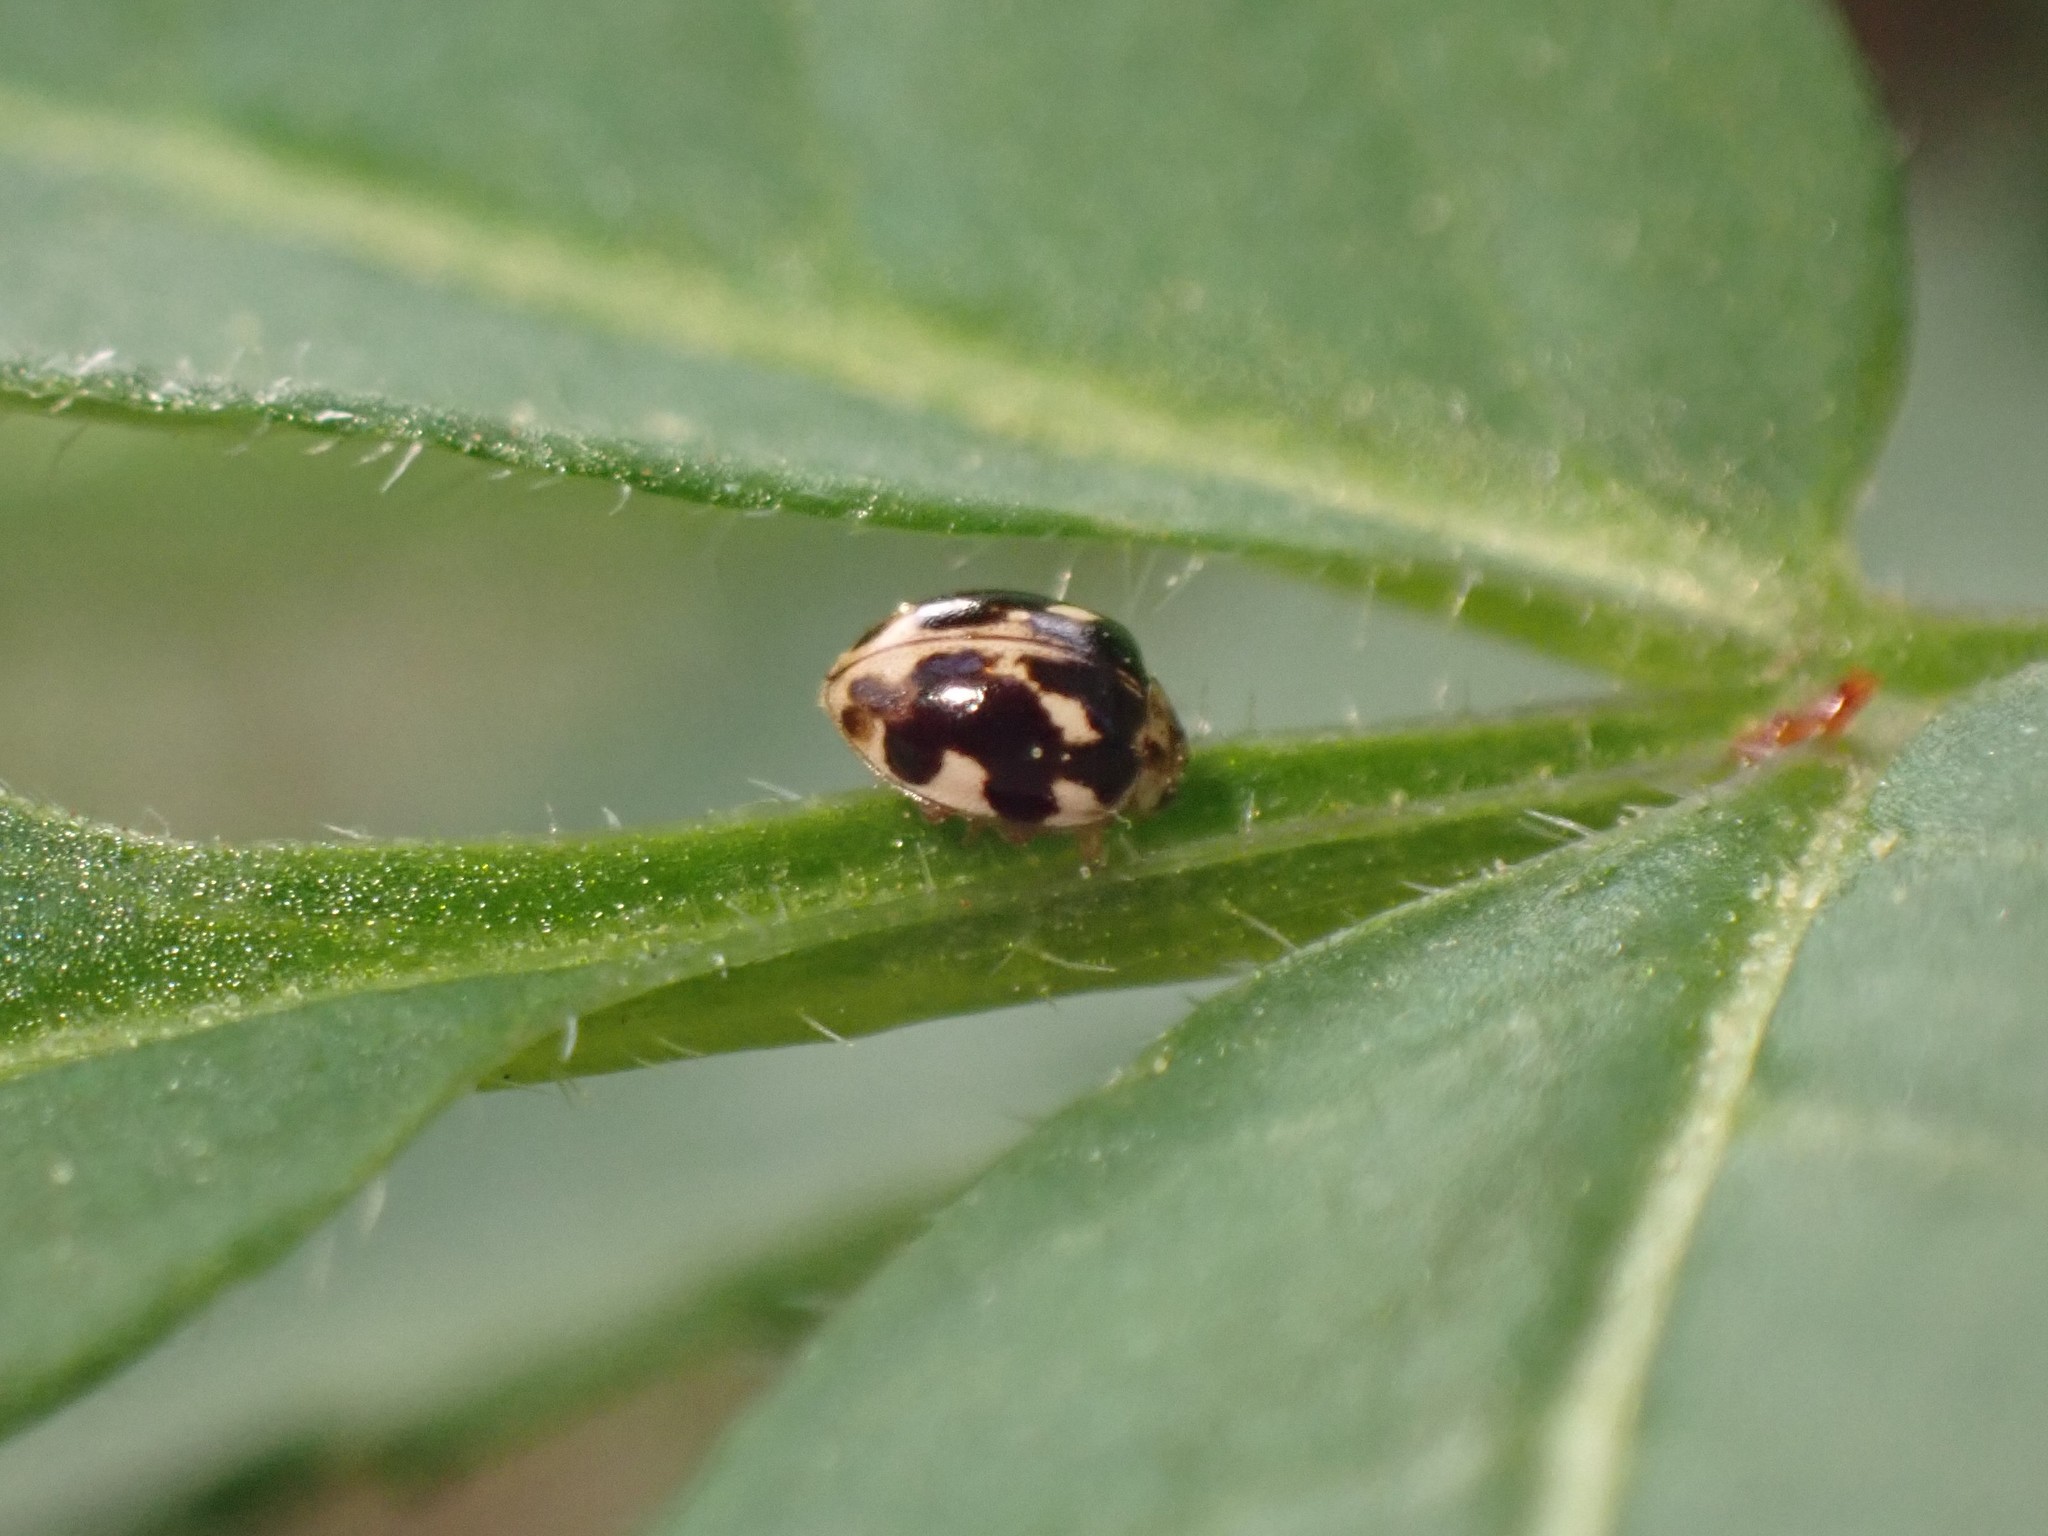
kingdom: Animalia
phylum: Arthropoda
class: Insecta
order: Coleoptera
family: Coccinellidae
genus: Psyllobora
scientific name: Psyllobora vigintimaculata
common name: Ladybird beetle
